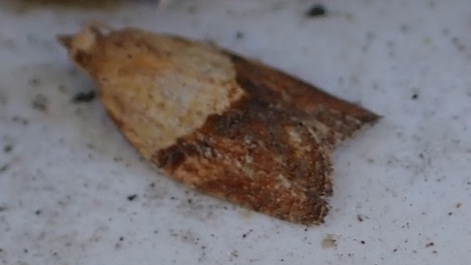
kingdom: Animalia
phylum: Arthropoda
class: Insecta
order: Lepidoptera
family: Tortricidae
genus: Epiphyas
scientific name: Epiphyas postvittana
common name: Light brown apple moth
